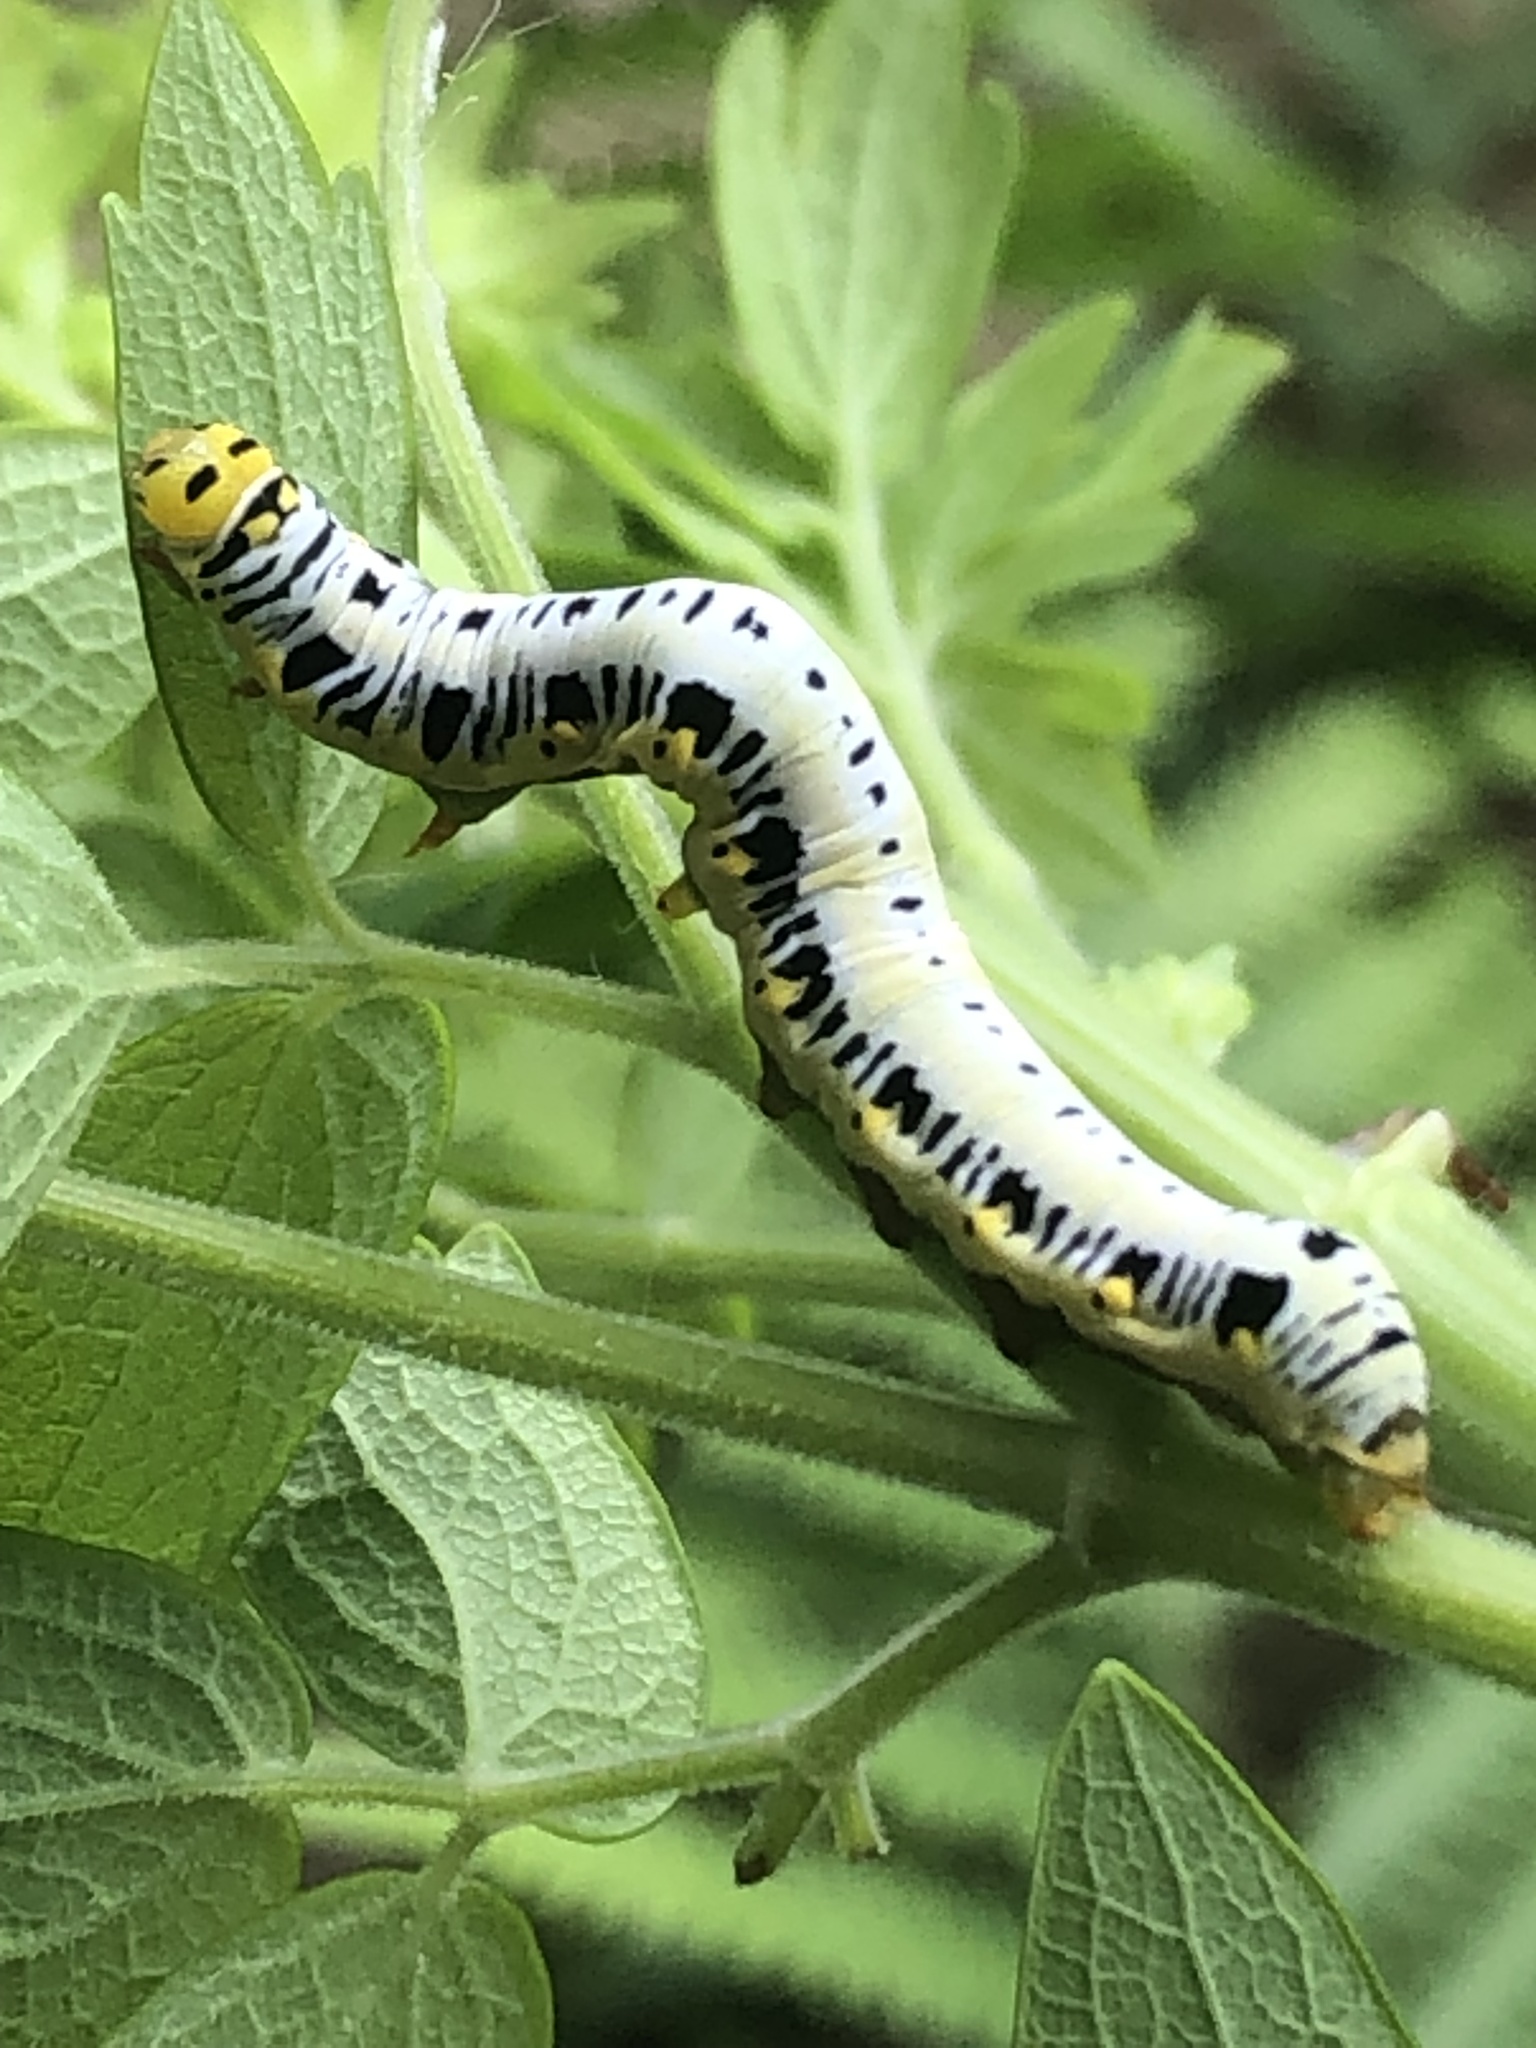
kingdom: Animalia
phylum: Arthropoda
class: Insecta
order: Lepidoptera
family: Erebidae
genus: Calyptra
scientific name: Calyptra canadensis
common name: Canadian owlet
